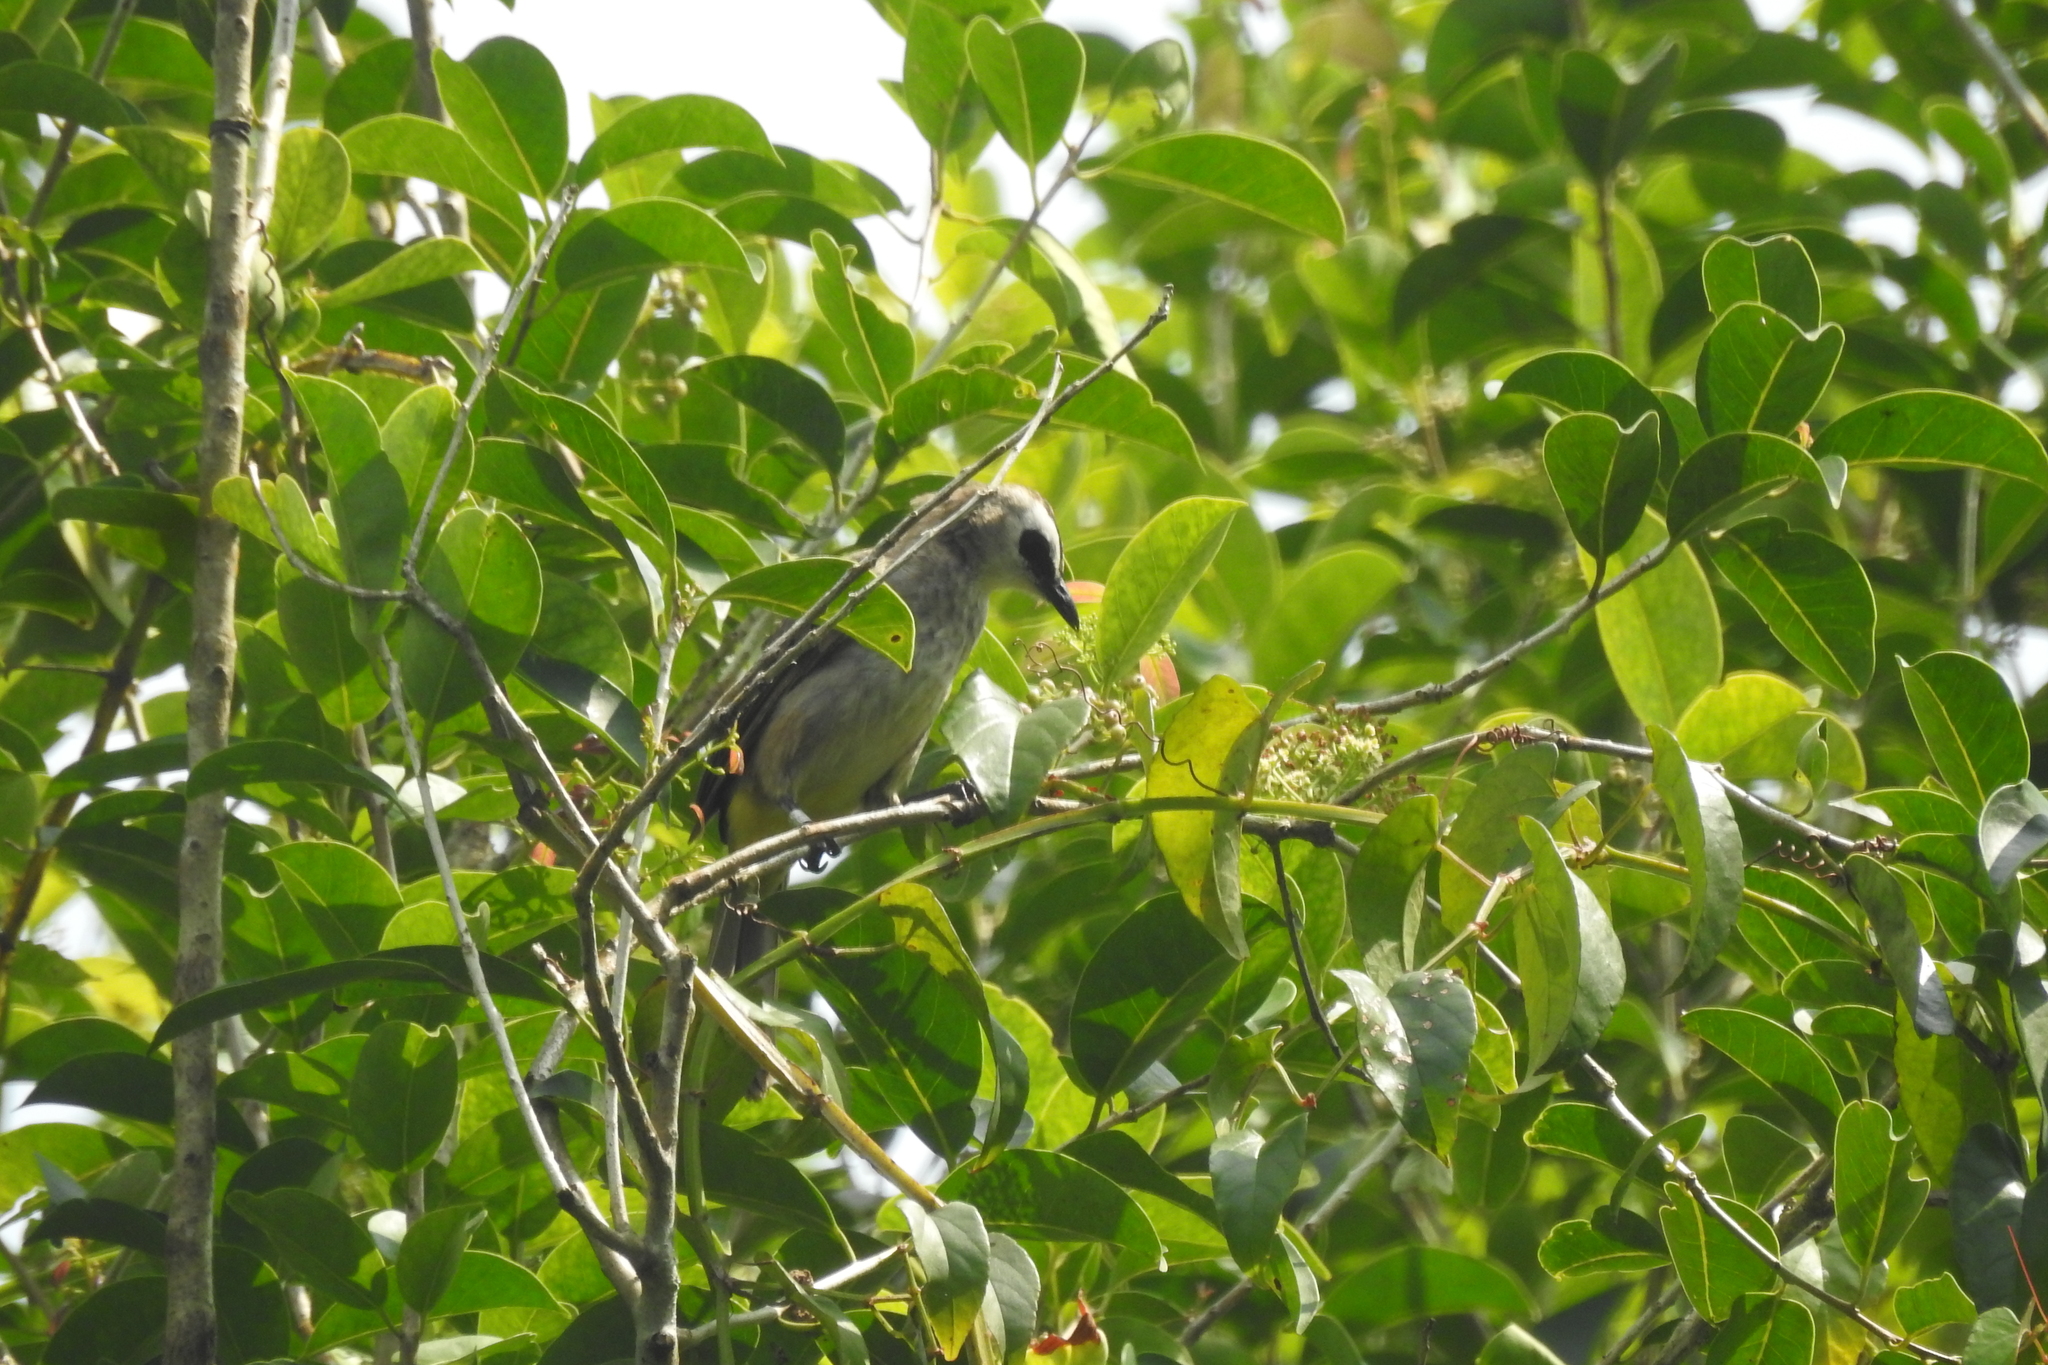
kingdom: Animalia
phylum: Chordata
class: Aves
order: Passeriformes
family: Pycnonotidae
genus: Pycnonotus
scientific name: Pycnonotus goiavier
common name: Yellow-vented bulbul
